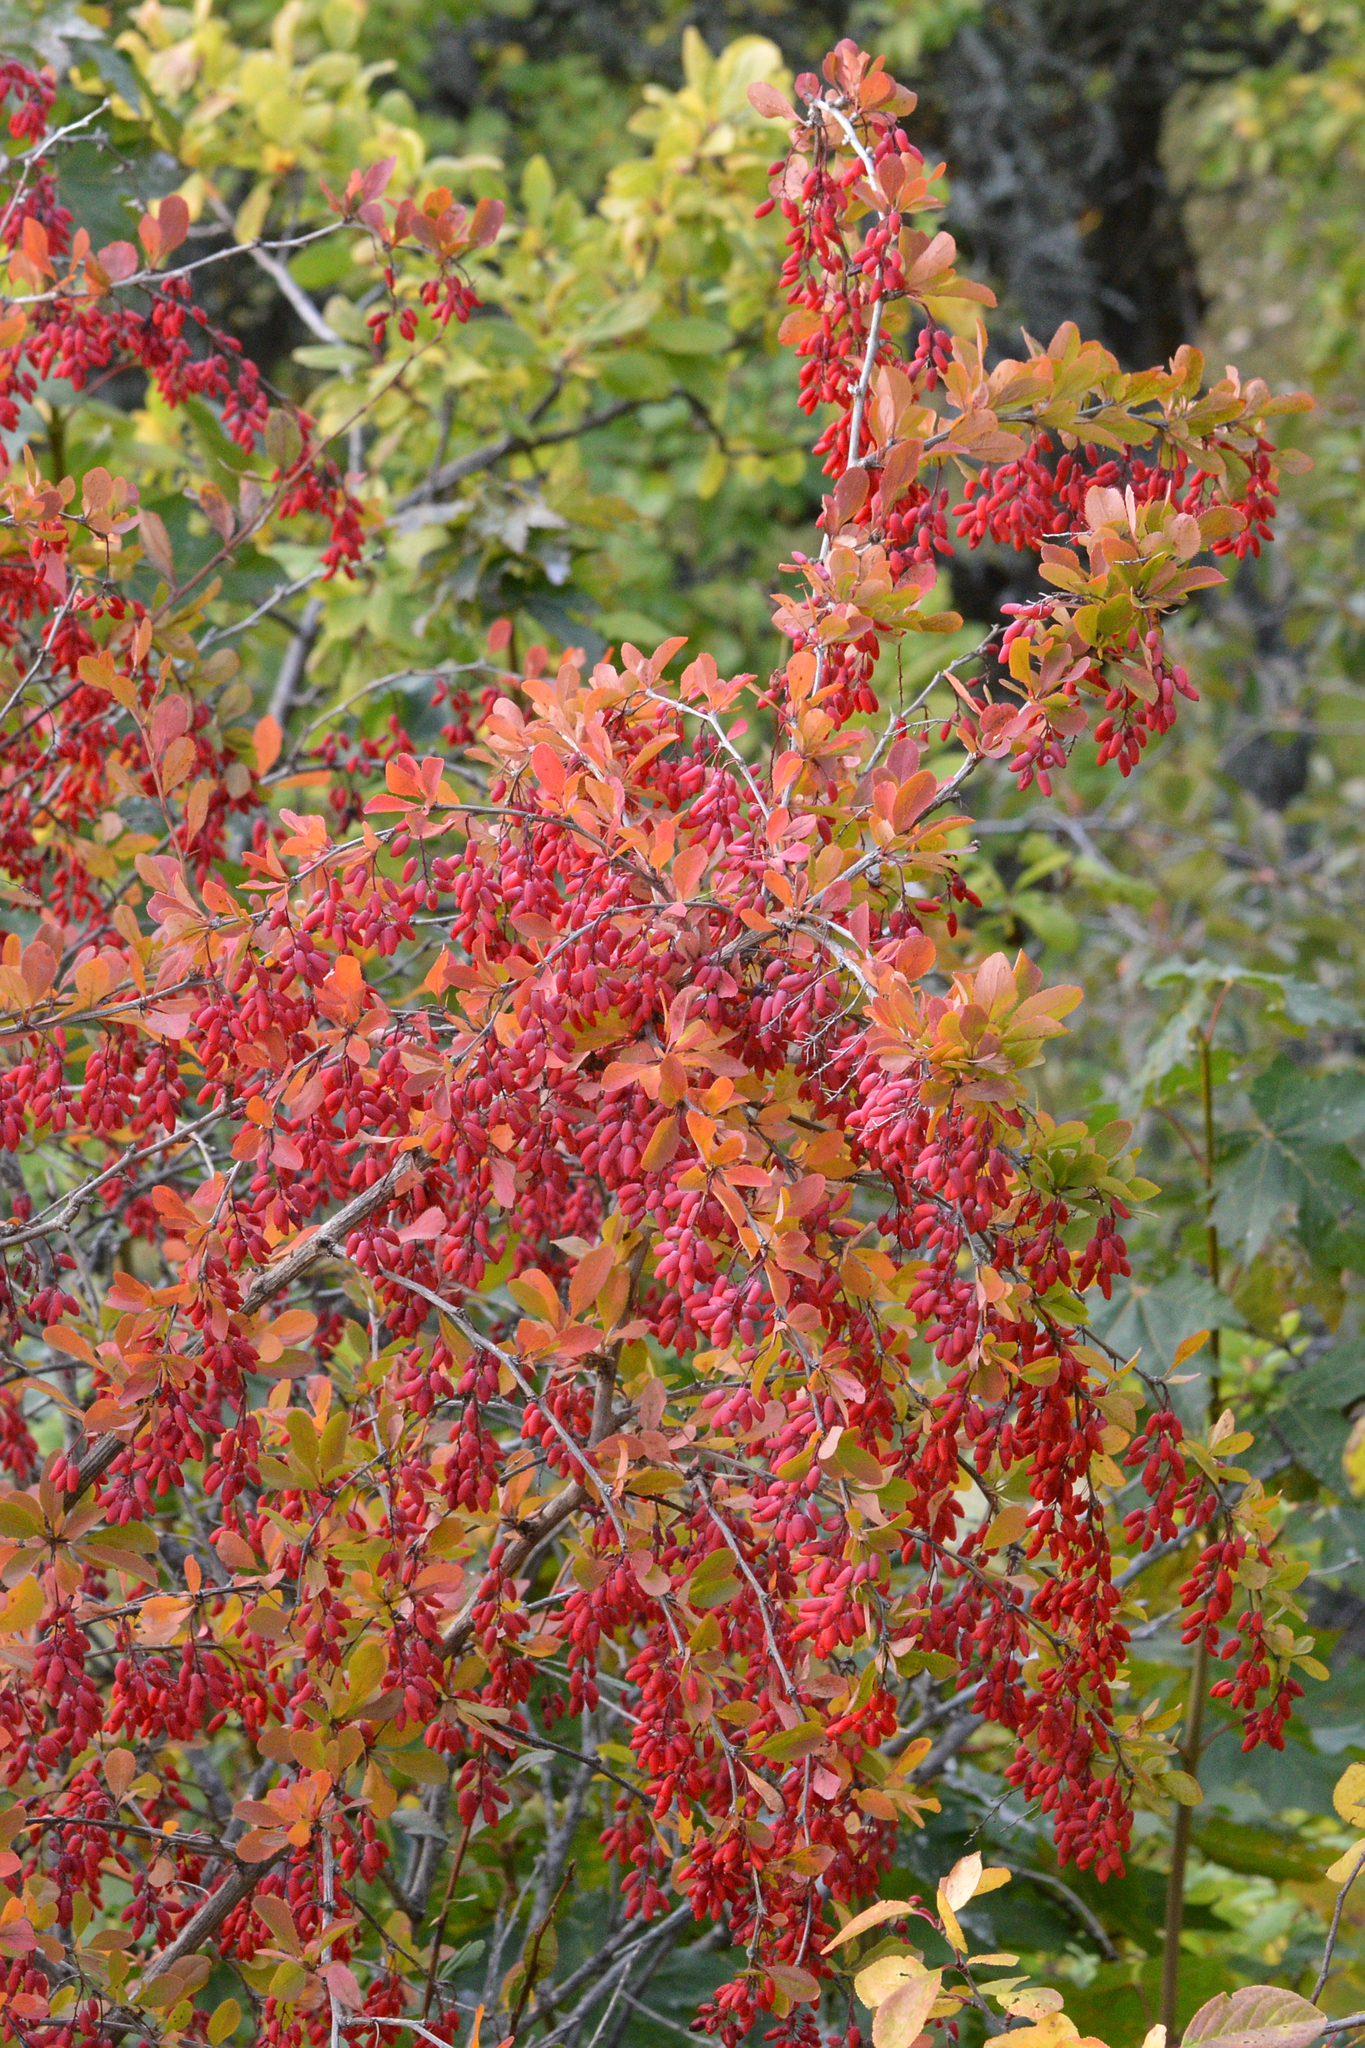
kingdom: Plantae
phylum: Tracheophyta
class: Magnoliopsida
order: Ranunculales
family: Berberidaceae
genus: Berberis
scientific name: Berberis vulgaris
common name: Barberry
